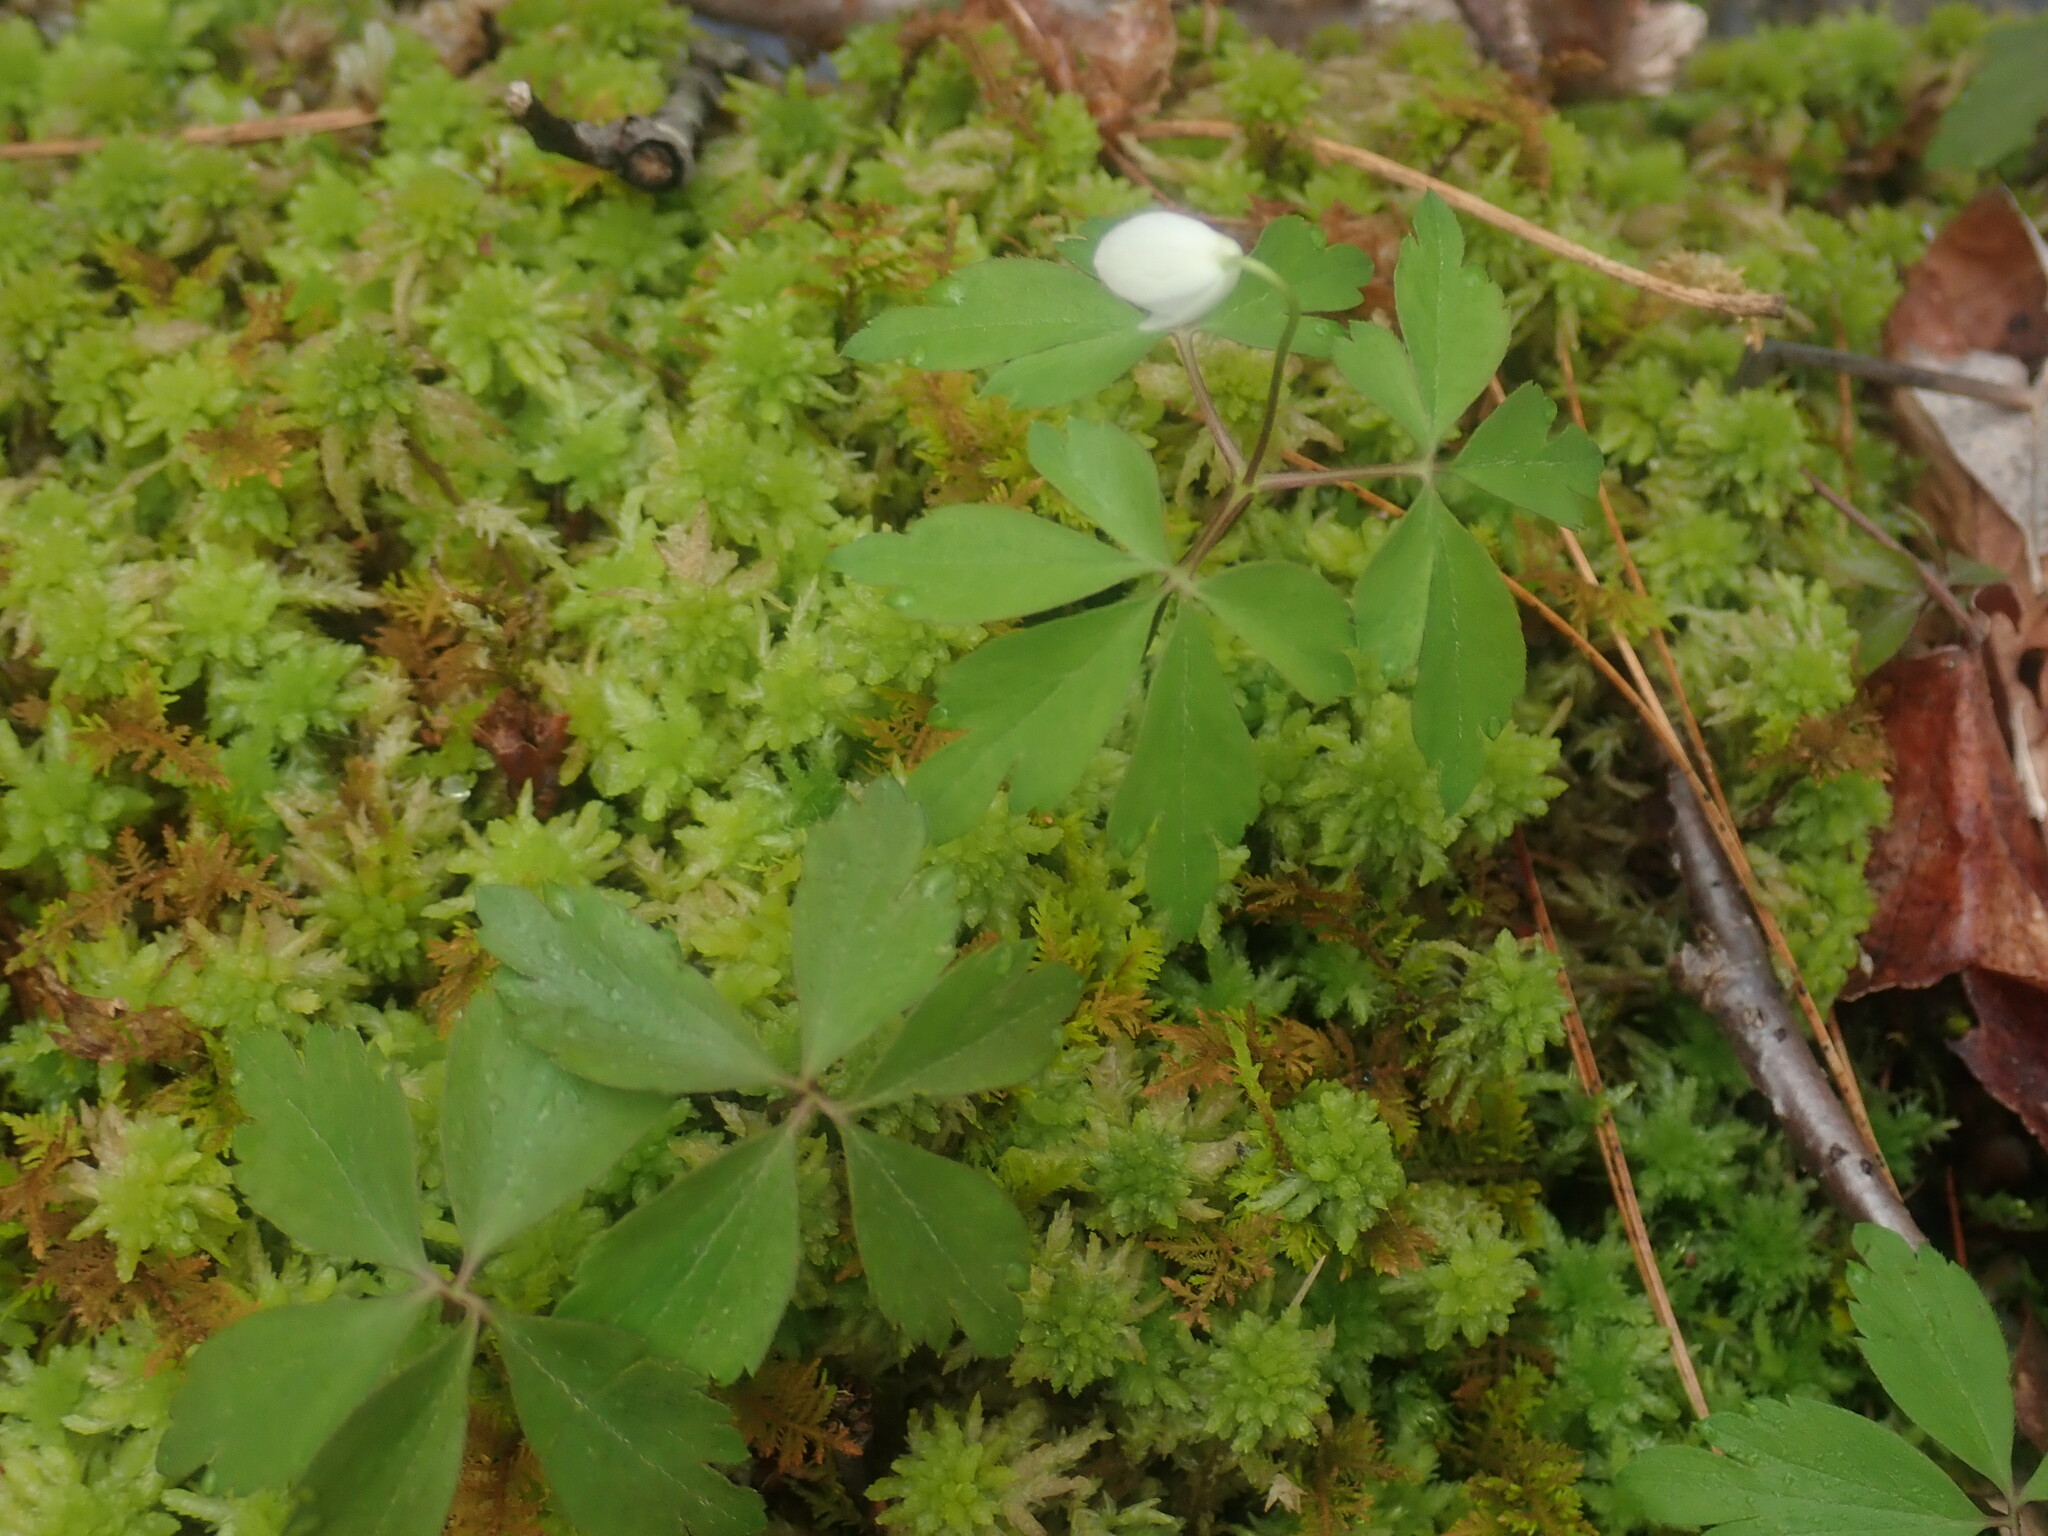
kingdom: Plantae
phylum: Tracheophyta
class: Magnoliopsida
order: Ranunculales
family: Ranunculaceae
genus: Anemone
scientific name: Anemone quinquefolia
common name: Wood anemone
